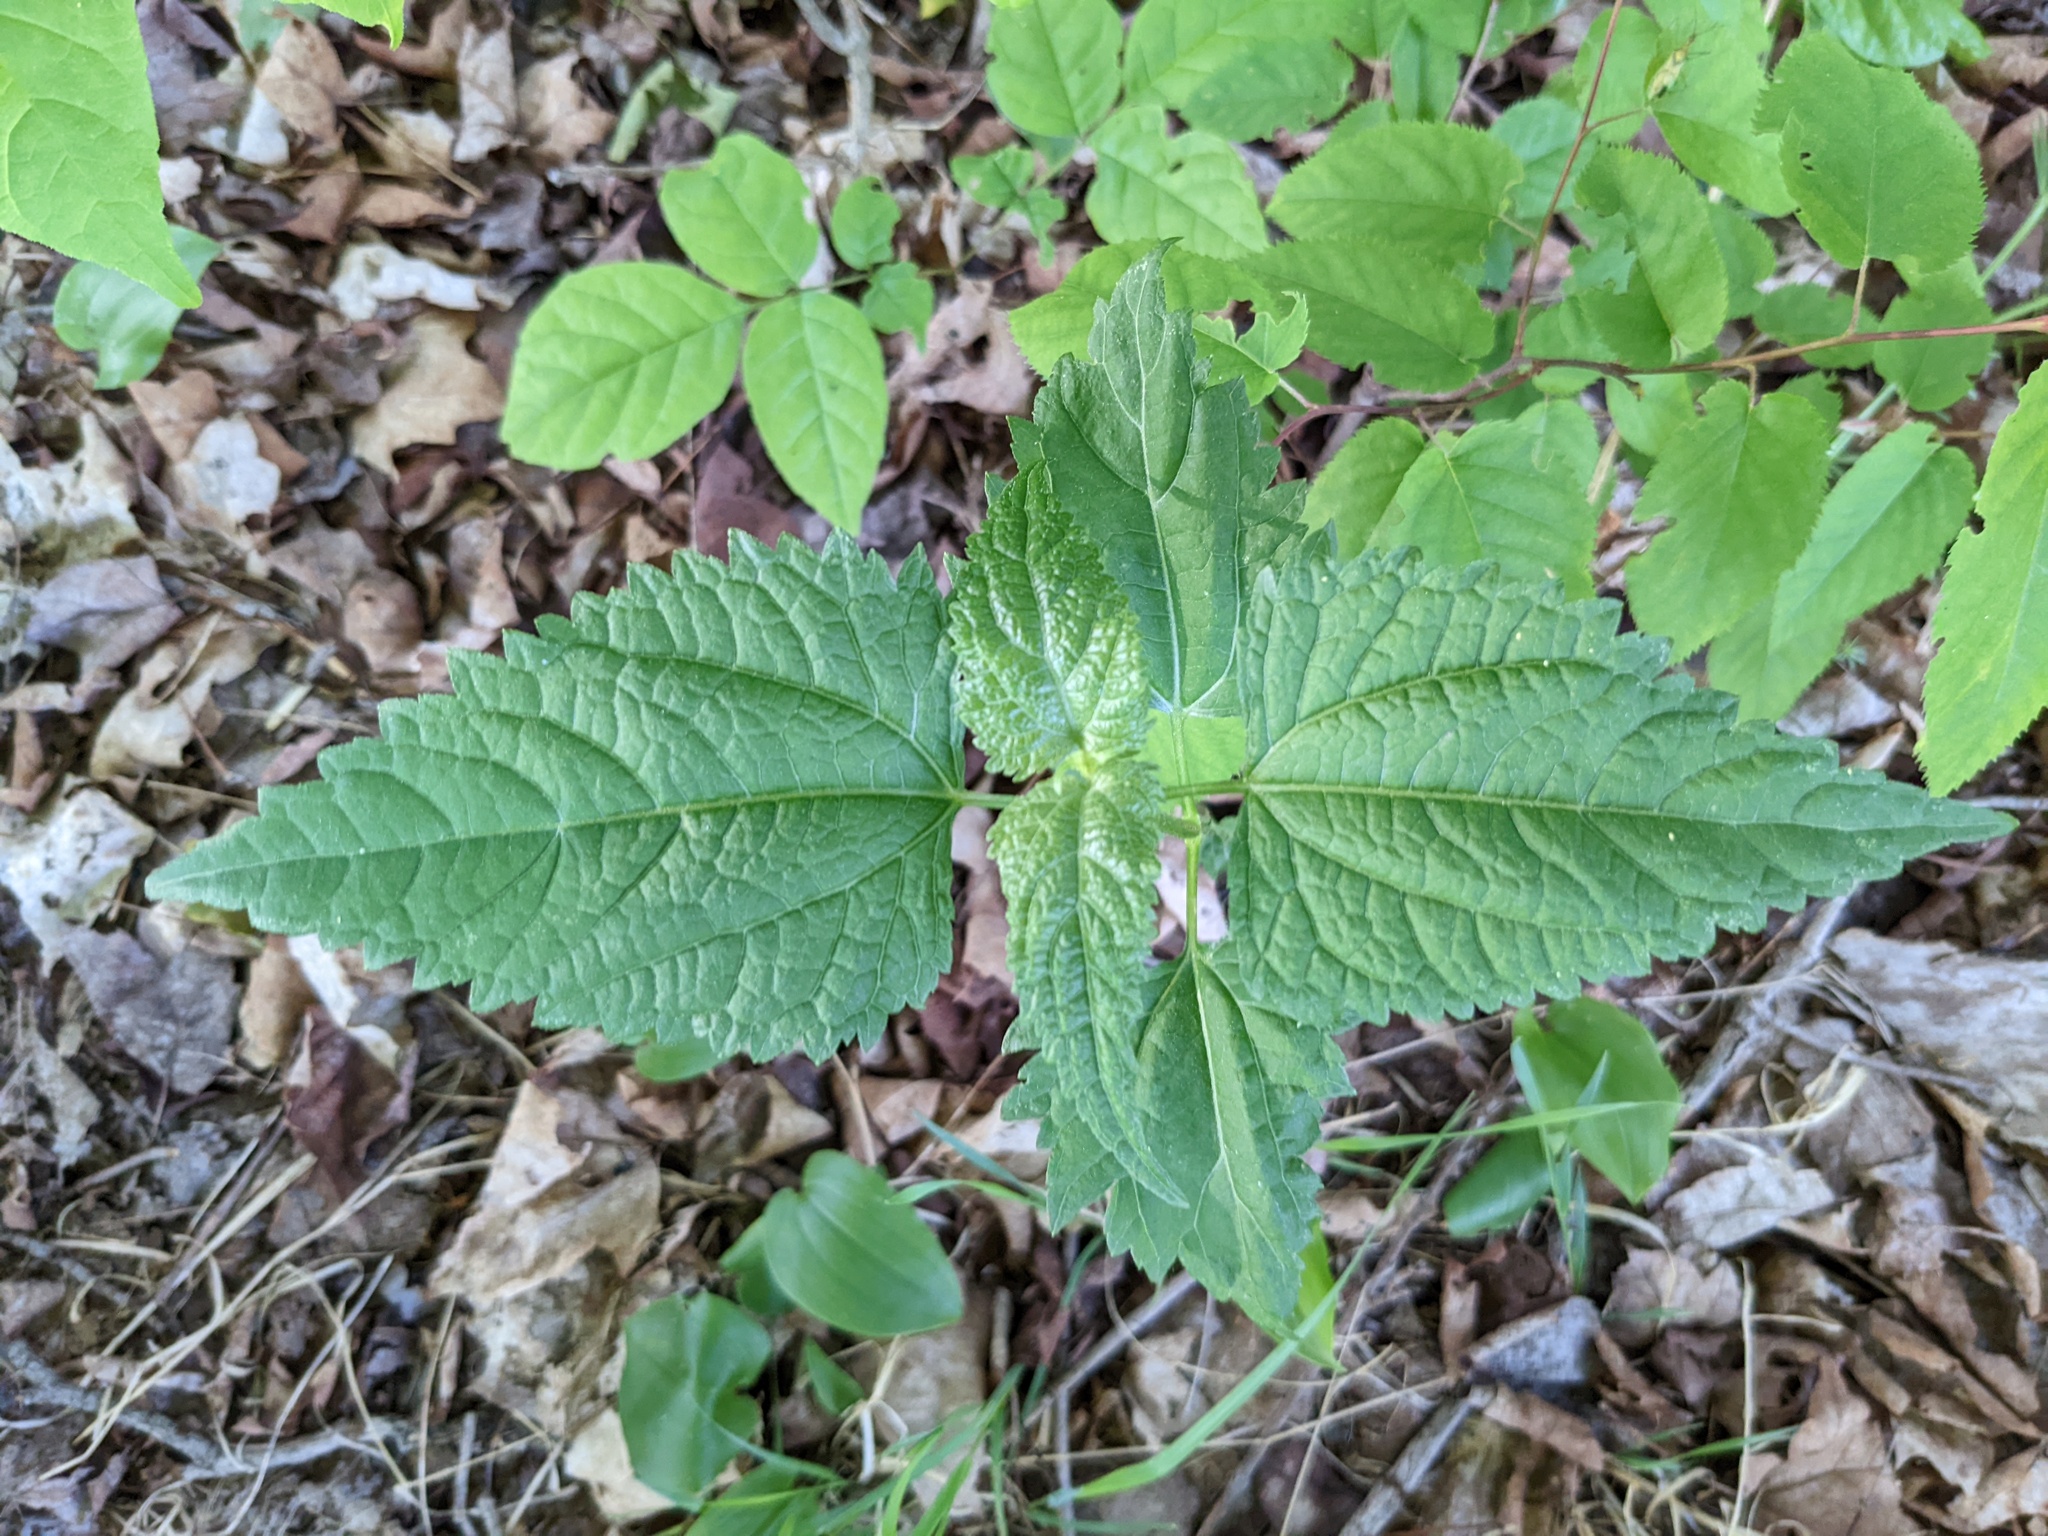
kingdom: Plantae
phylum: Tracheophyta
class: Magnoliopsida
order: Asterales
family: Asteraceae
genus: Ageratina
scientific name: Ageratina altissima
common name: White snakeroot
